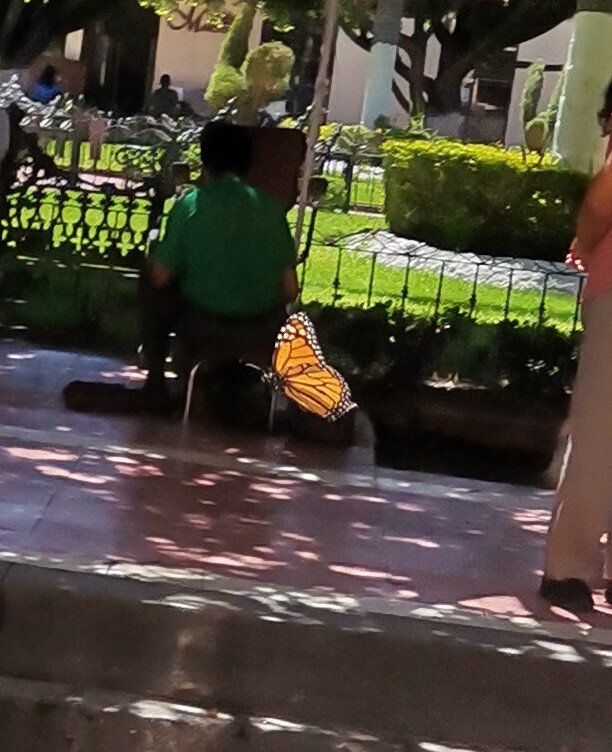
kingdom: Animalia
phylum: Arthropoda
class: Insecta
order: Lepidoptera
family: Nymphalidae
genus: Danaus
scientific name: Danaus plexippus
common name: Monarch
